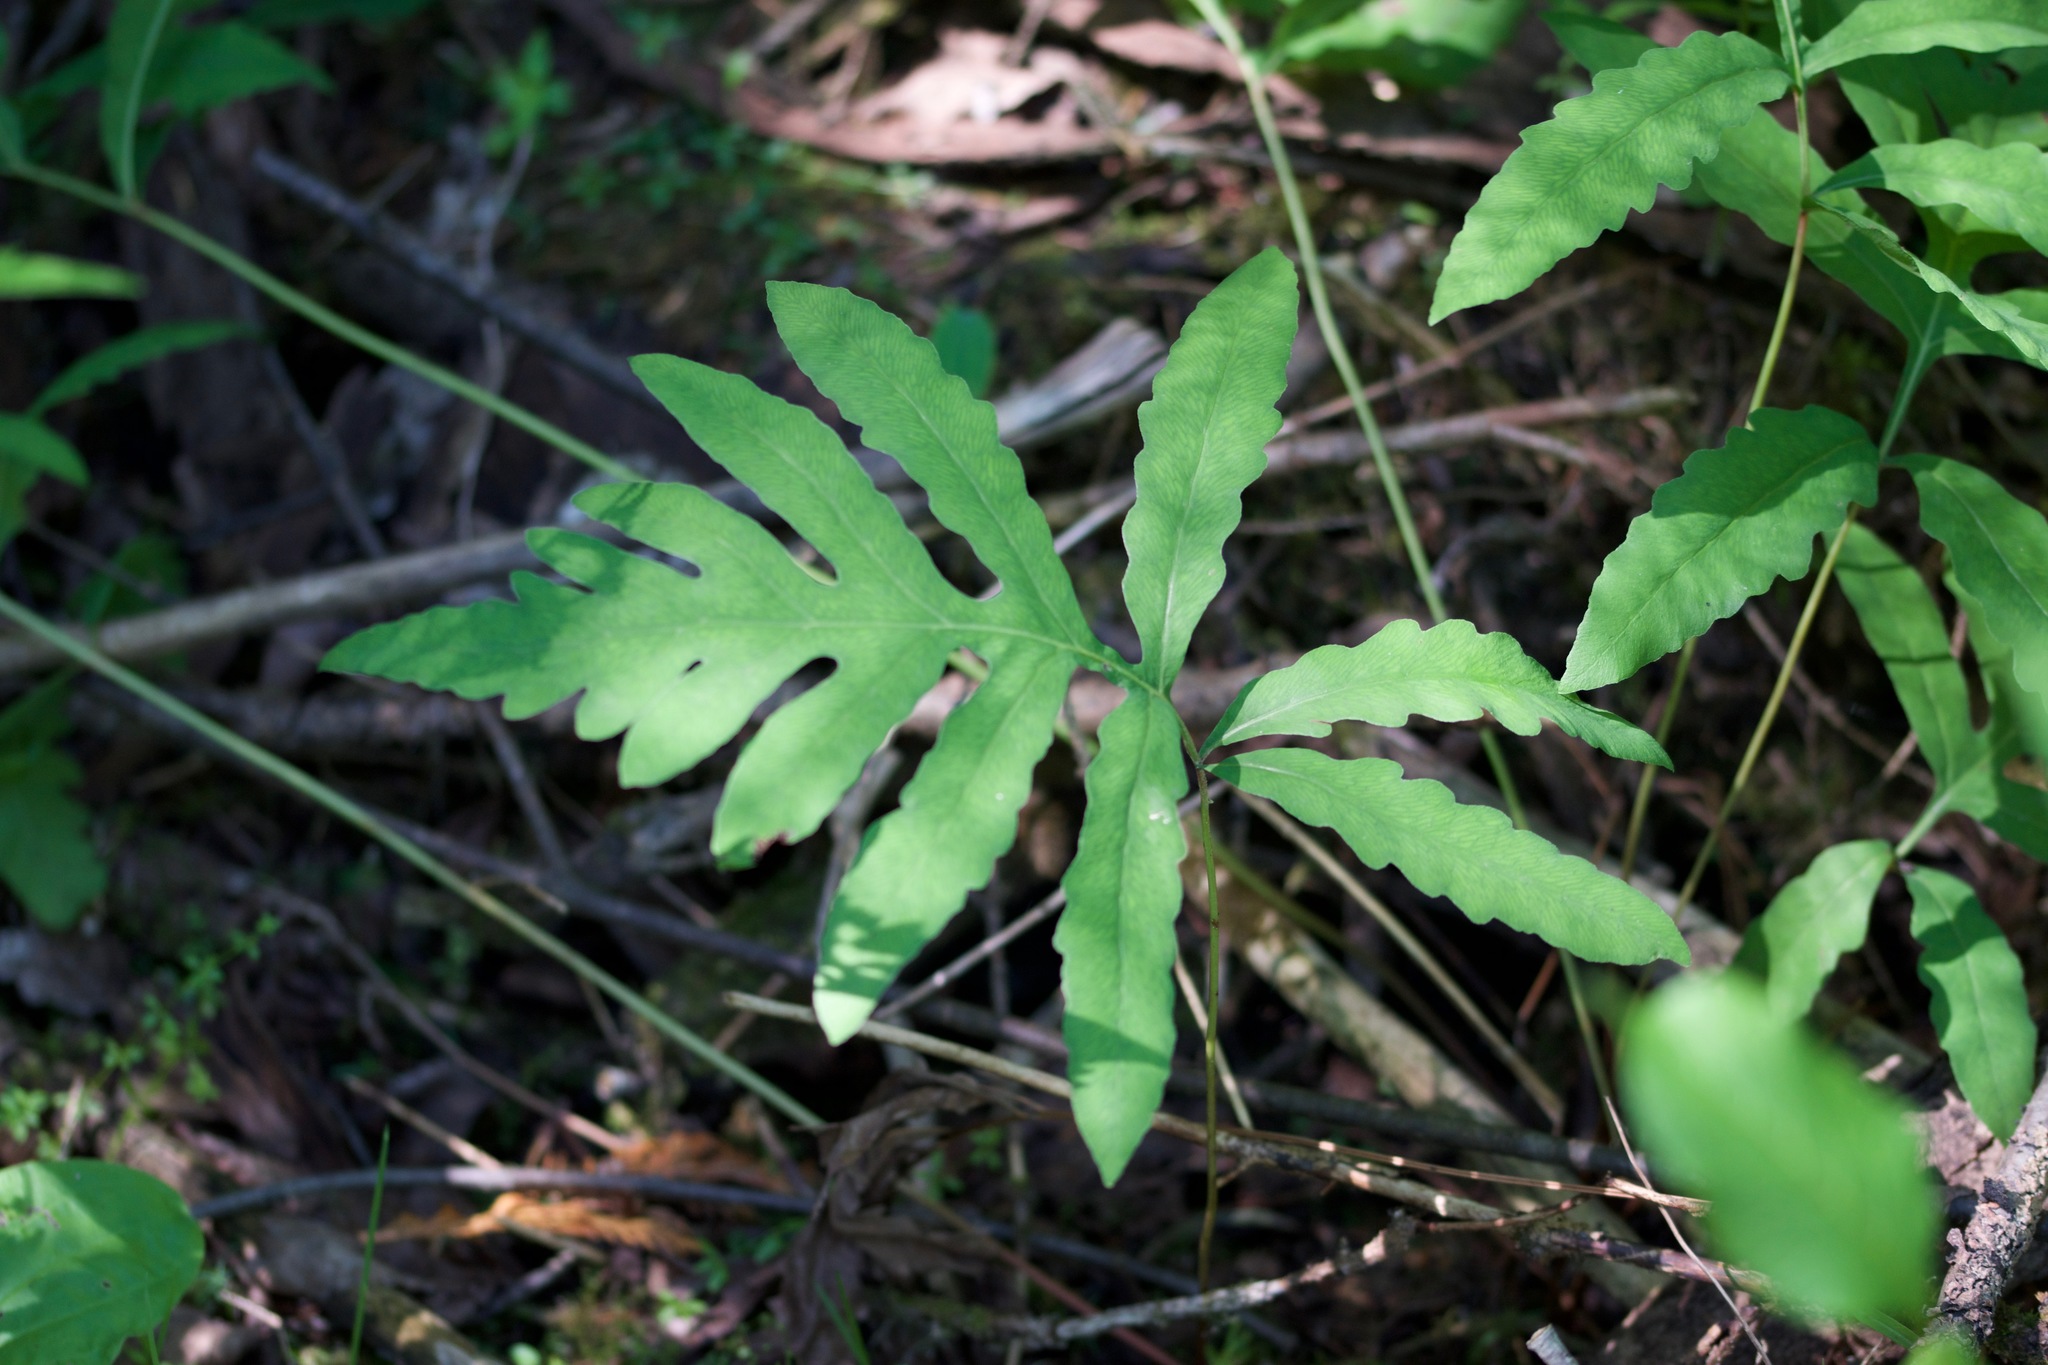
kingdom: Plantae
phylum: Tracheophyta
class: Polypodiopsida
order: Polypodiales
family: Onocleaceae
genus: Onoclea
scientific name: Onoclea sensibilis
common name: Sensitive fern
